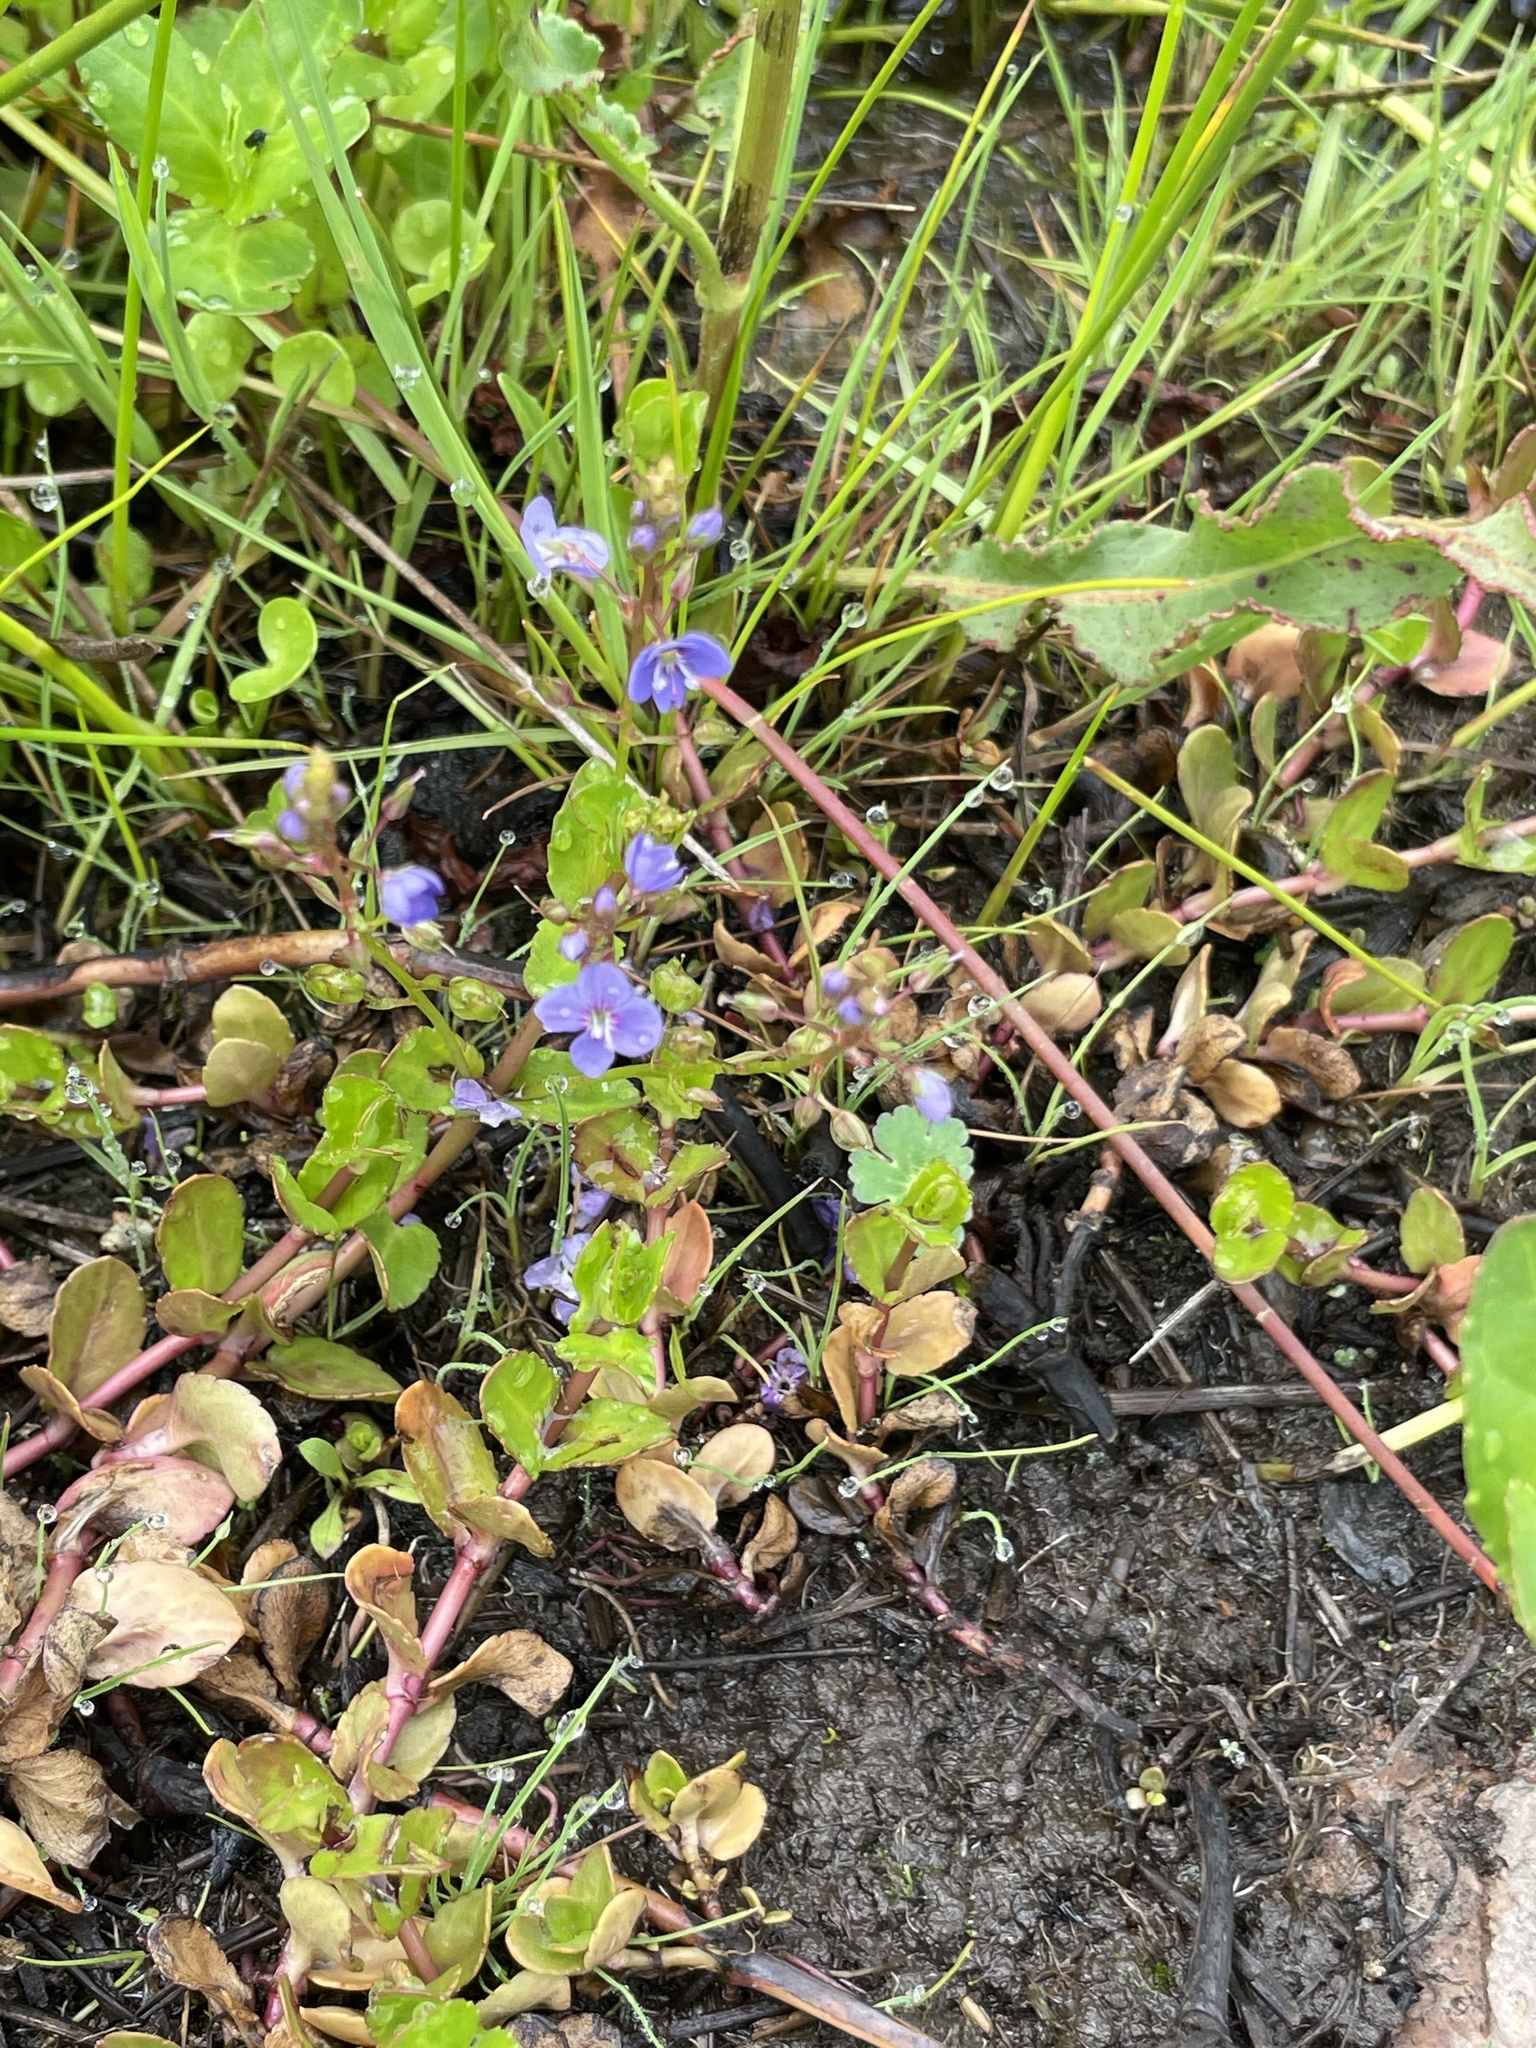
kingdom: Plantae
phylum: Tracheophyta
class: Magnoliopsida
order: Lamiales
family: Plantaginaceae
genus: Veronica
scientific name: Veronica americana
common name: American brooklime
